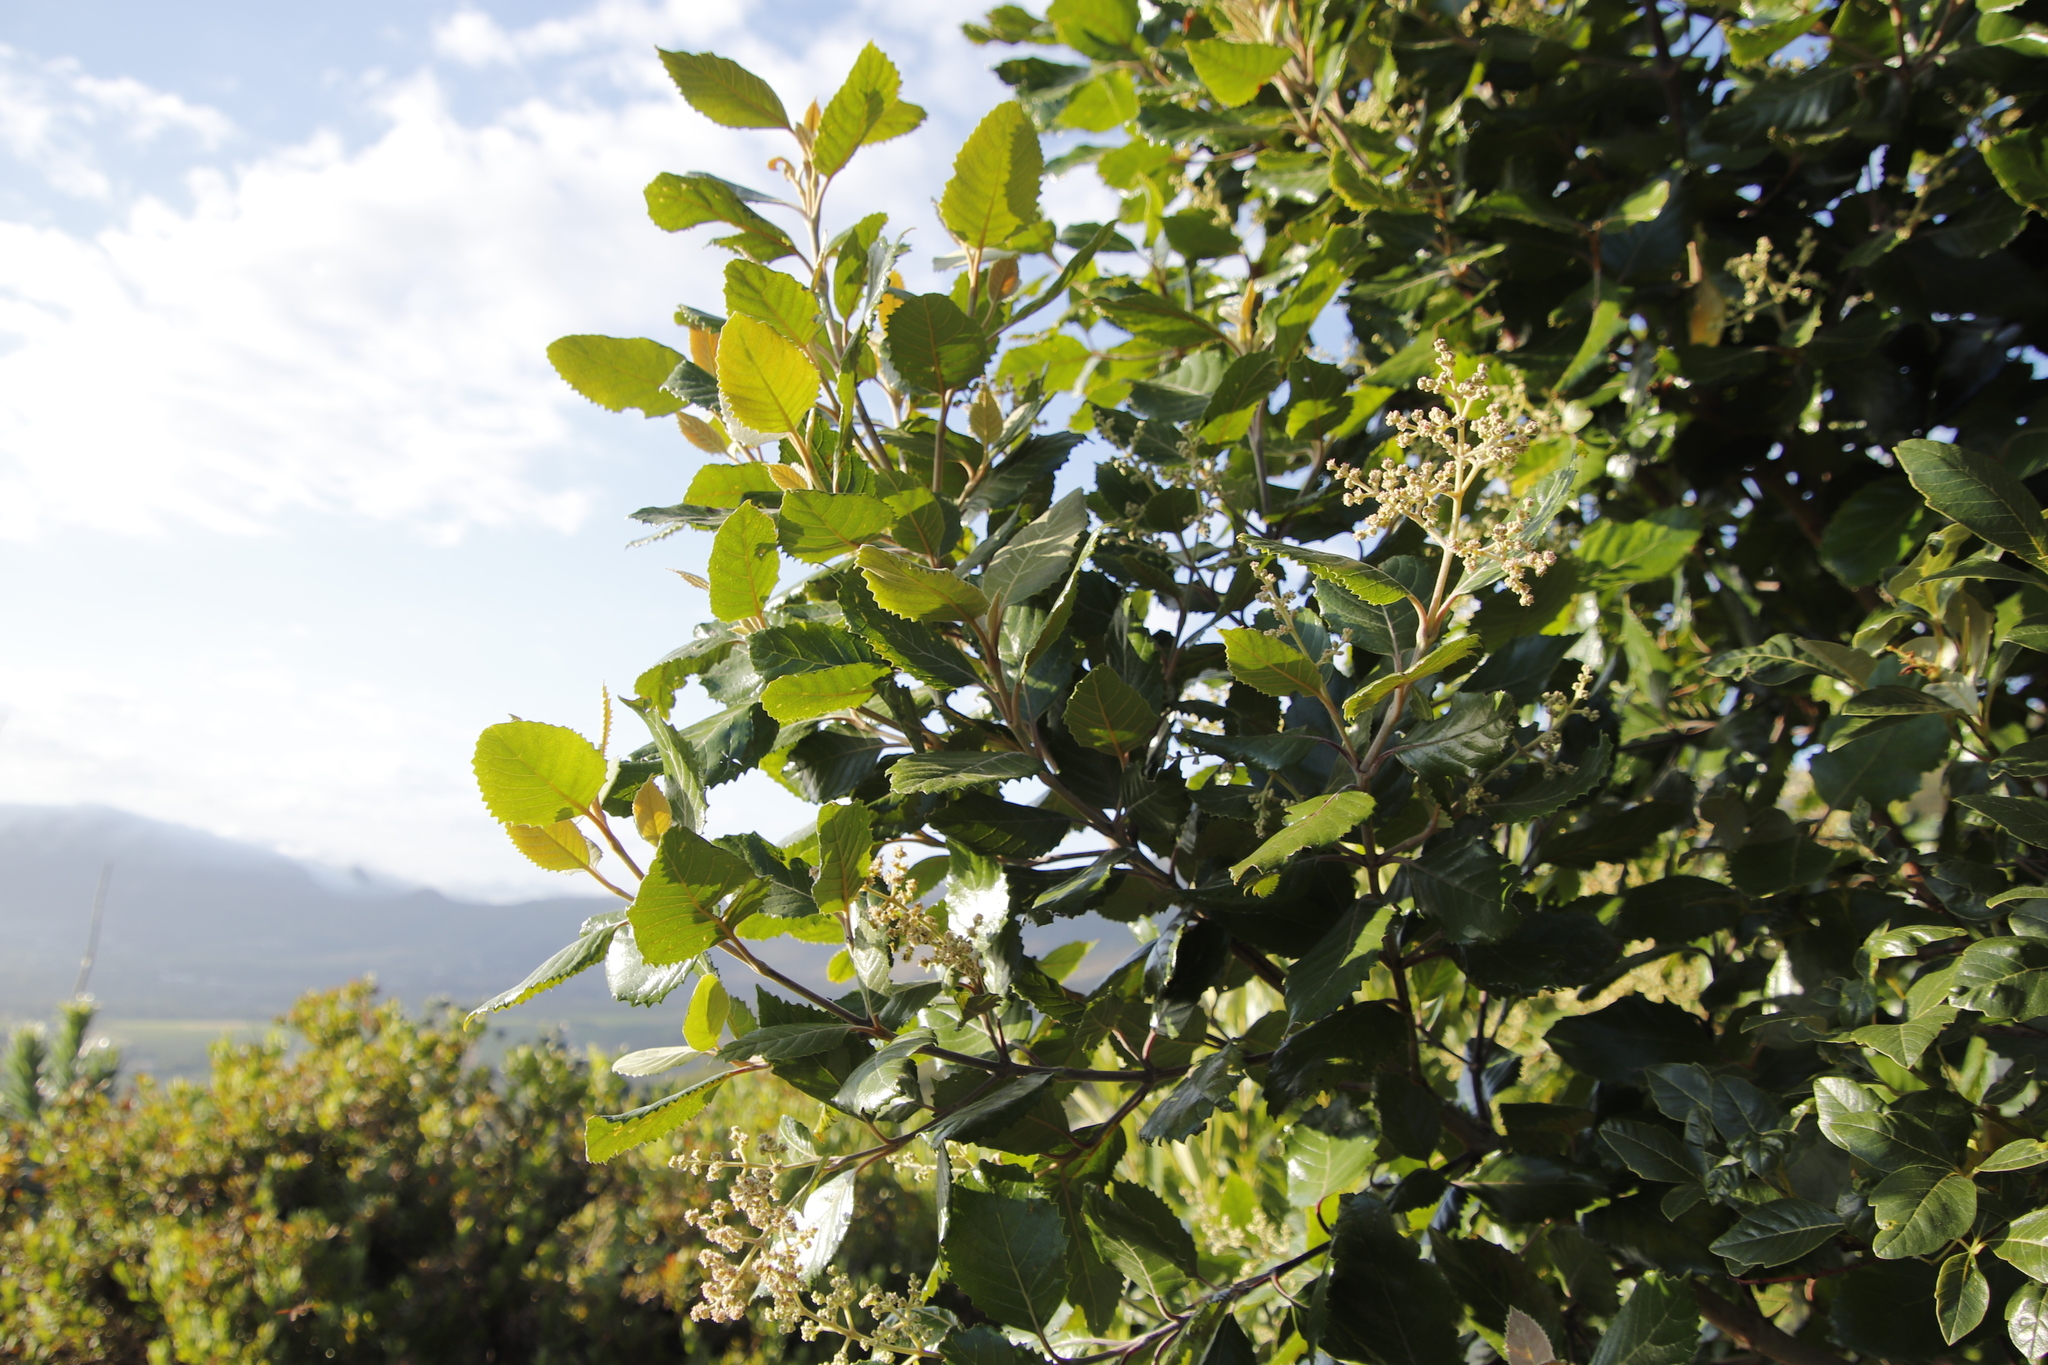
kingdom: Plantae
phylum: Tracheophyta
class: Magnoliopsida
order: Cornales
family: Curtisiaceae
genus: Curtisia
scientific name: Curtisia dentata
